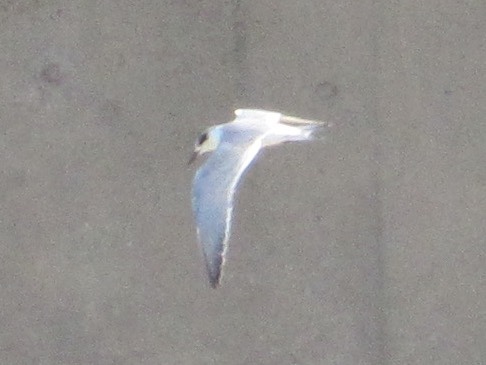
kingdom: Animalia
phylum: Chordata
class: Aves
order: Charadriiformes
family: Laridae
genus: Sterna
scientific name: Sterna forsteri
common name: Forster's tern
